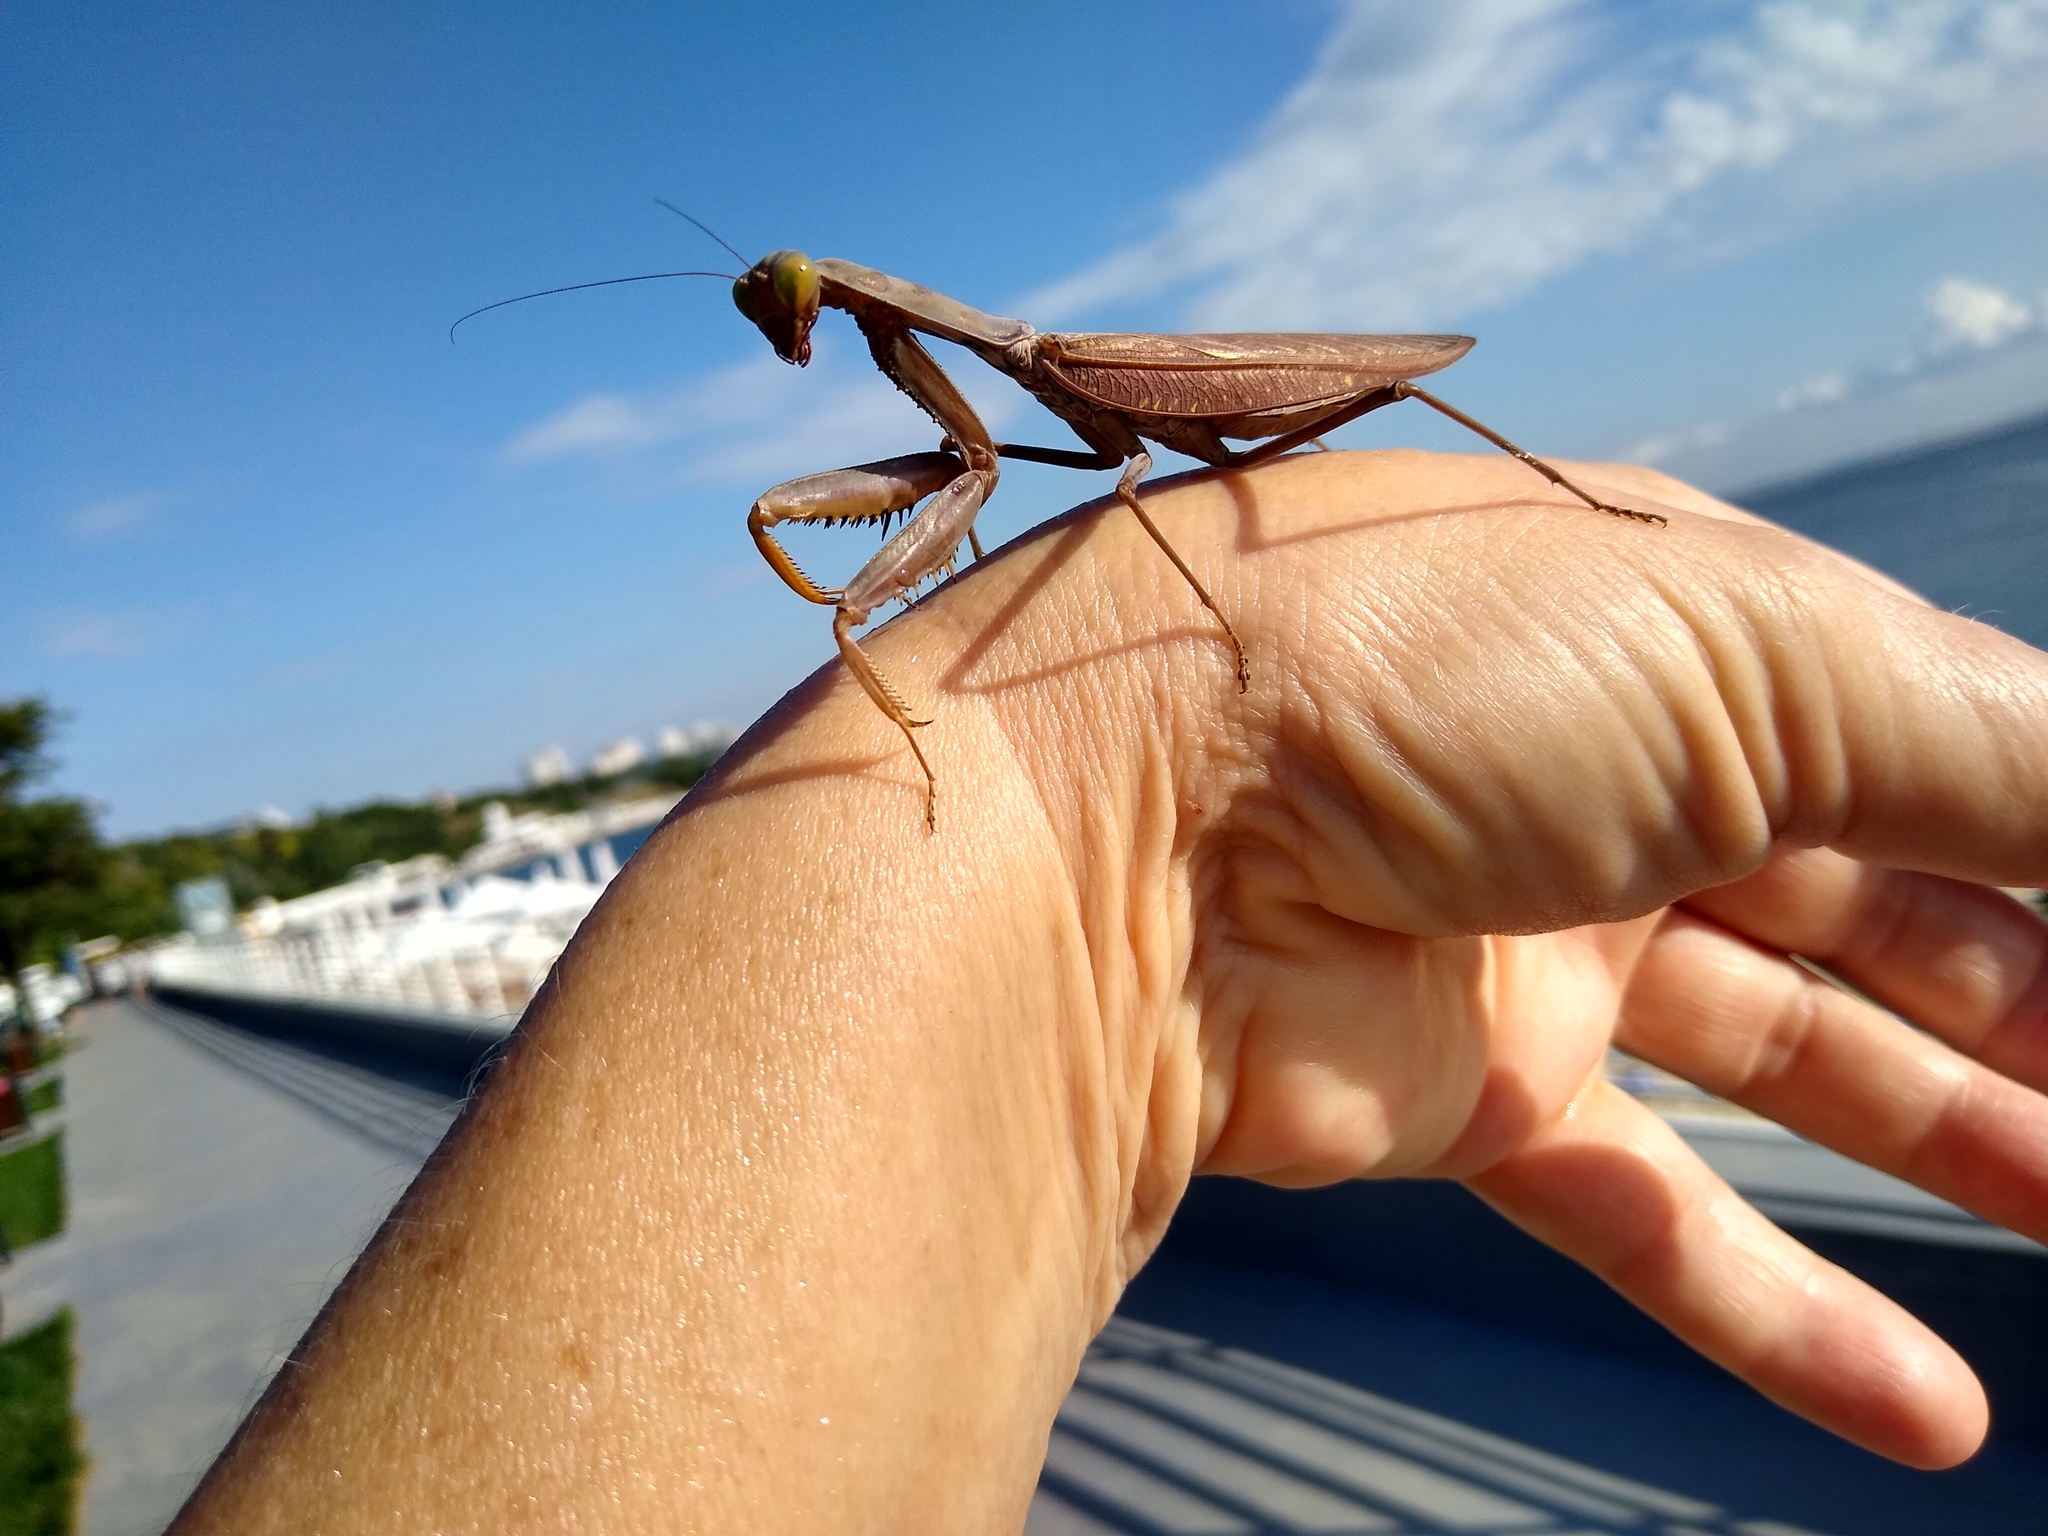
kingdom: Animalia
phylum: Arthropoda
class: Insecta
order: Mantodea
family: Mantidae
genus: Hierodula
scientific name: Hierodula transcaucasica
